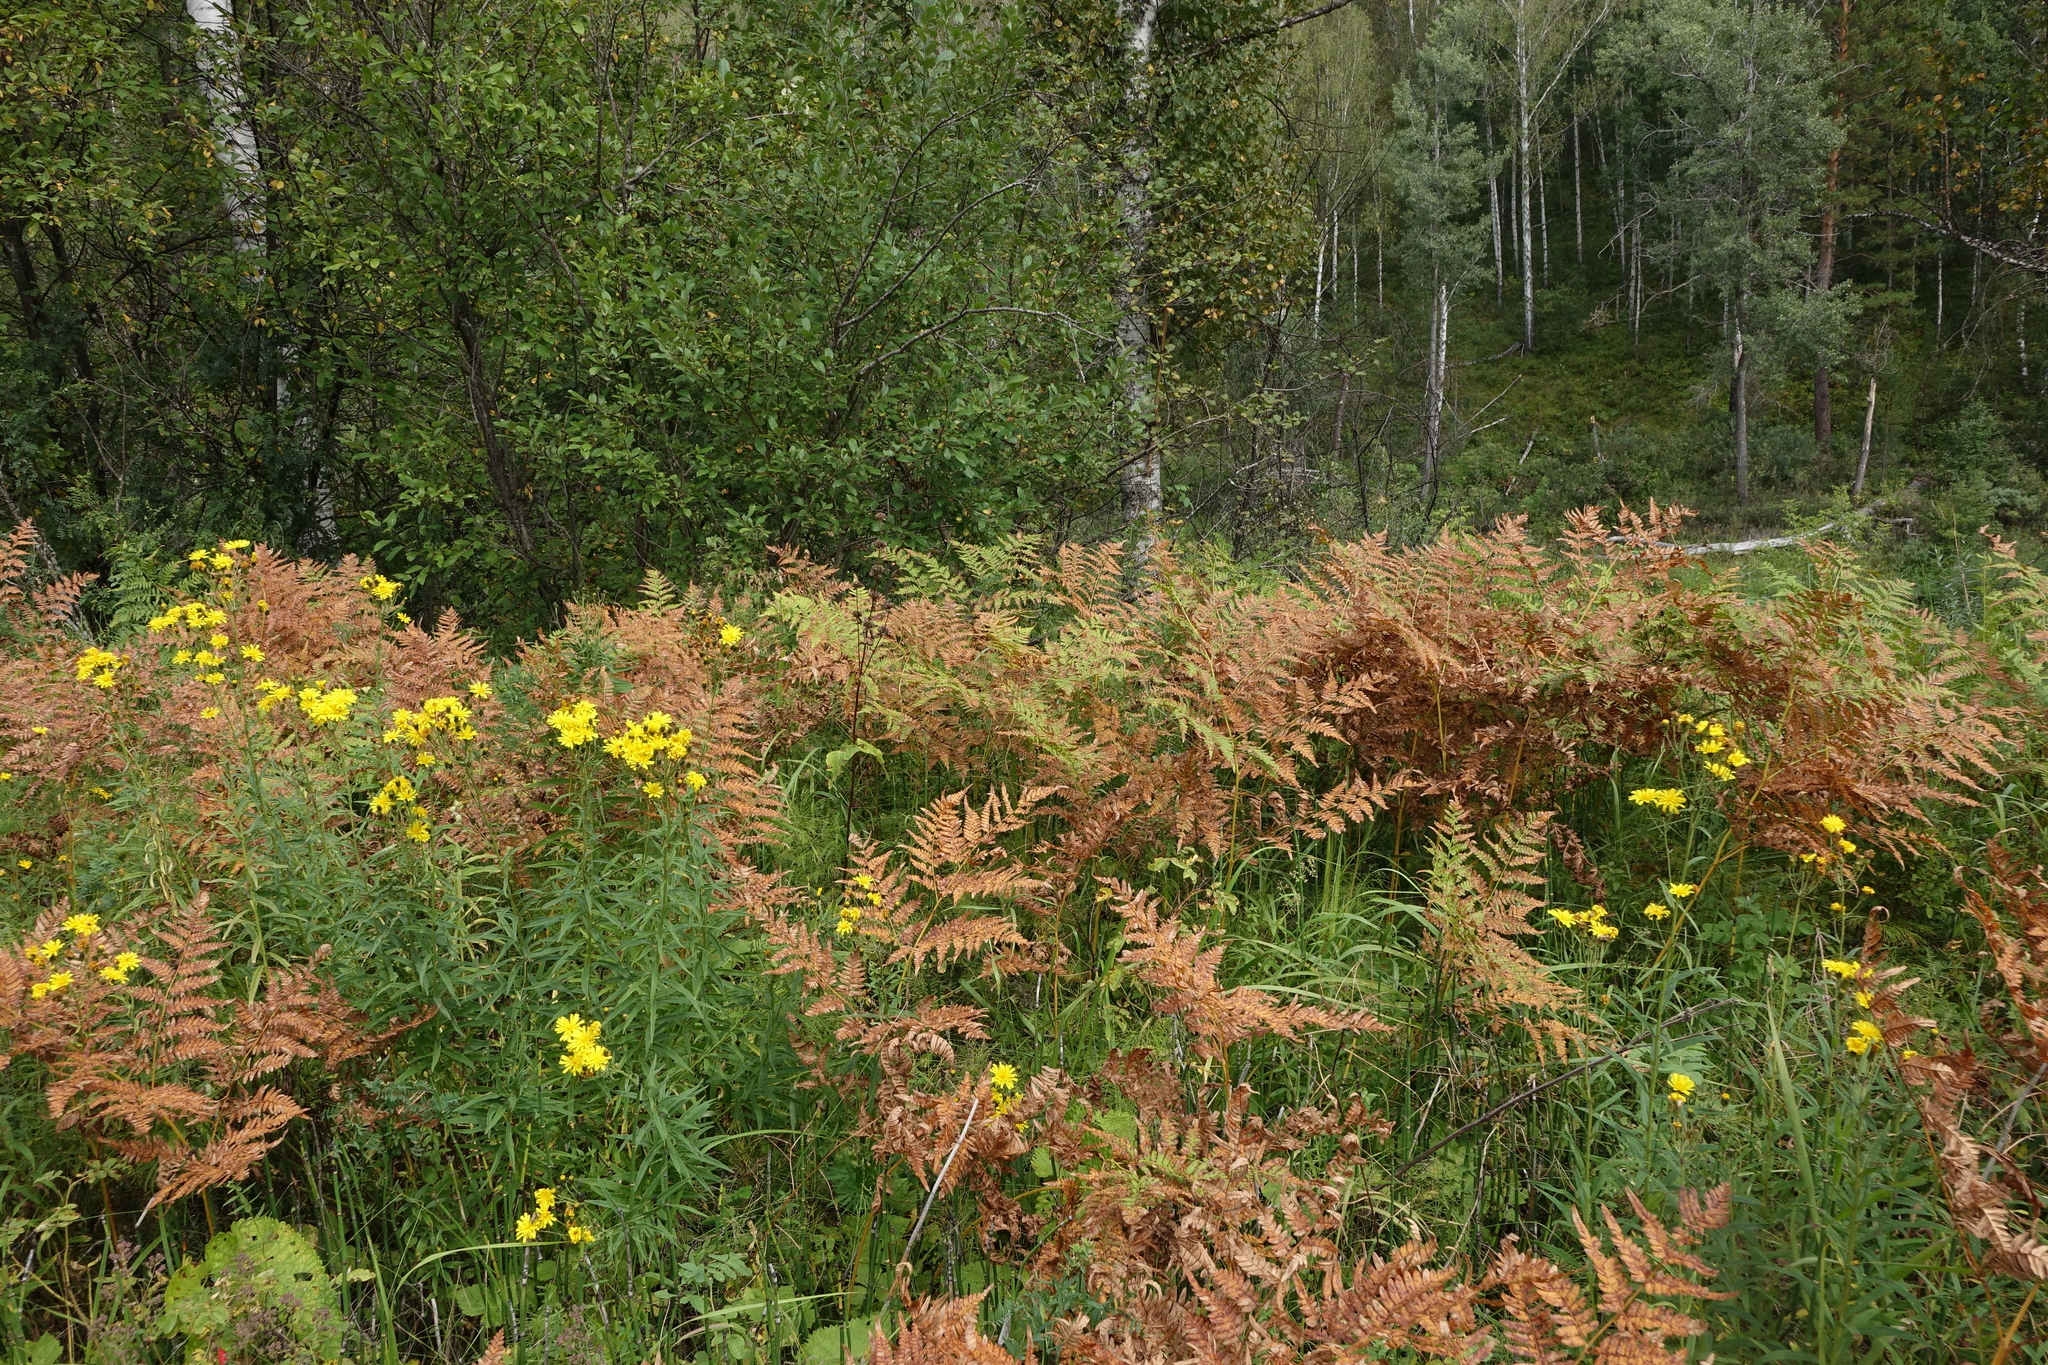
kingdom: Plantae
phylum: Tracheophyta
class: Polypodiopsida
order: Polypodiales
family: Dennstaedtiaceae
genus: Pteridium
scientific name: Pteridium aquilinum
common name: Bracken
